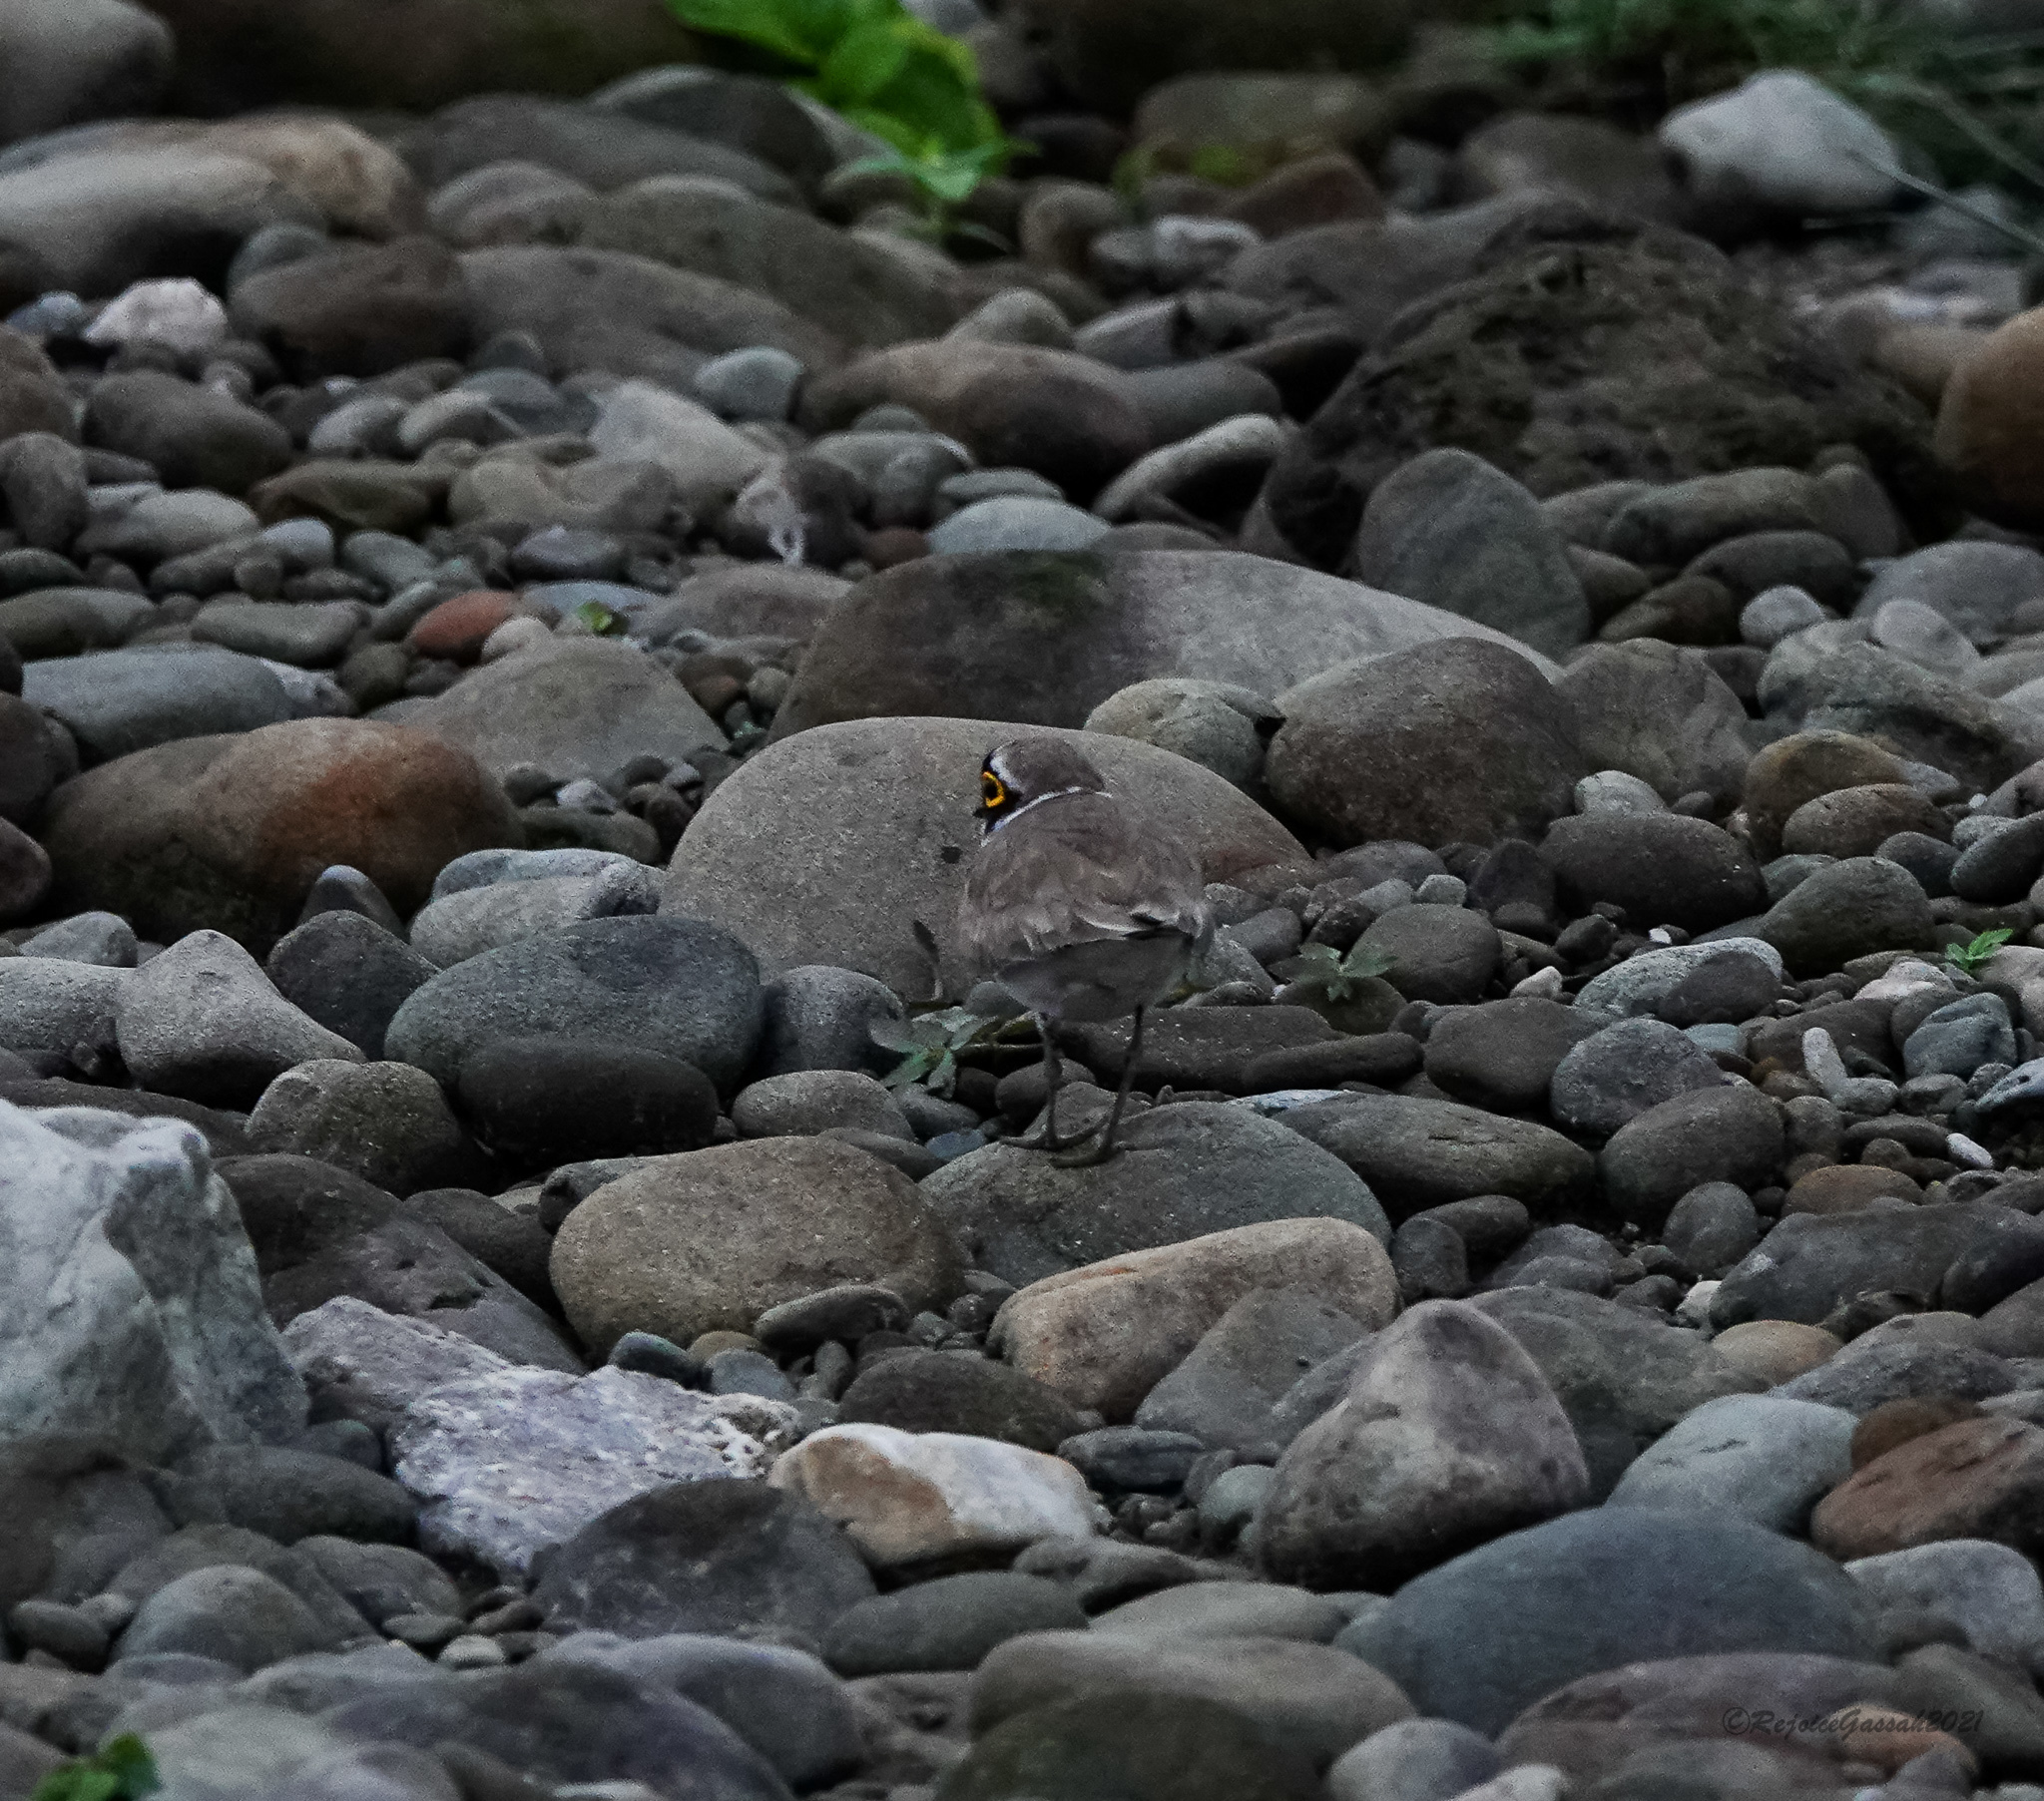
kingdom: Animalia
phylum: Chordata
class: Aves
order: Charadriiformes
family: Charadriidae
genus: Charadrius
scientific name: Charadrius dubius
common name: Little ringed plover
